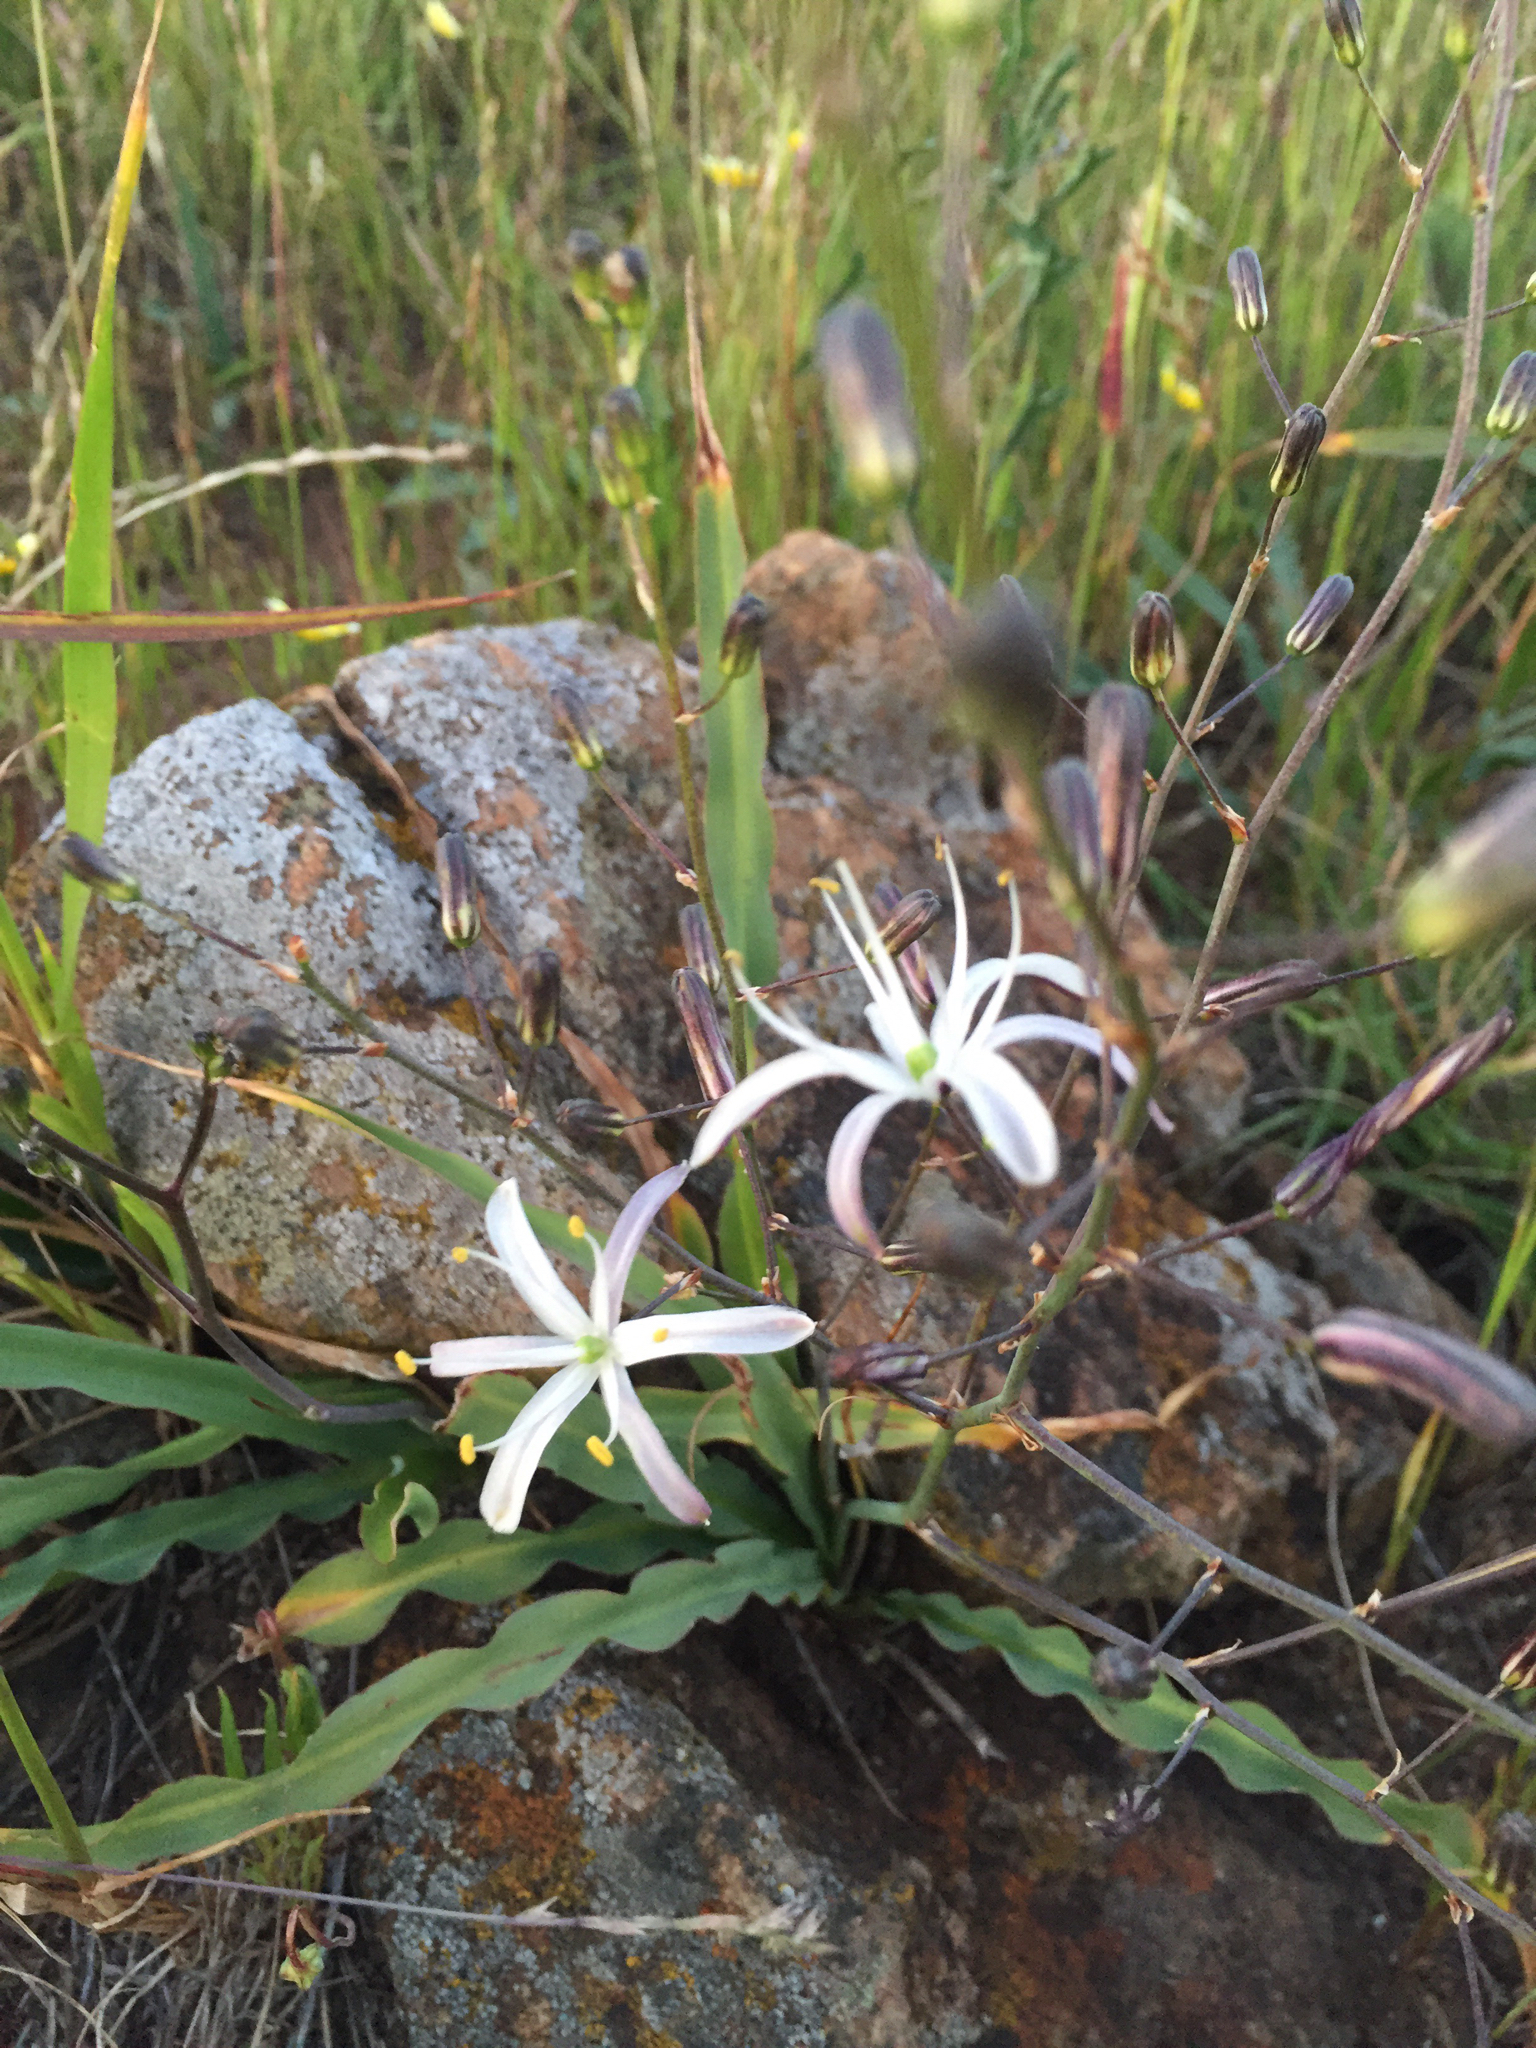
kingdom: Plantae
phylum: Tracheophyta
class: Liliopsida
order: Asparagales
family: Asparagaceae
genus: Chlorogalum
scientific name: Chlorogalum pomeridianum
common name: Amole
